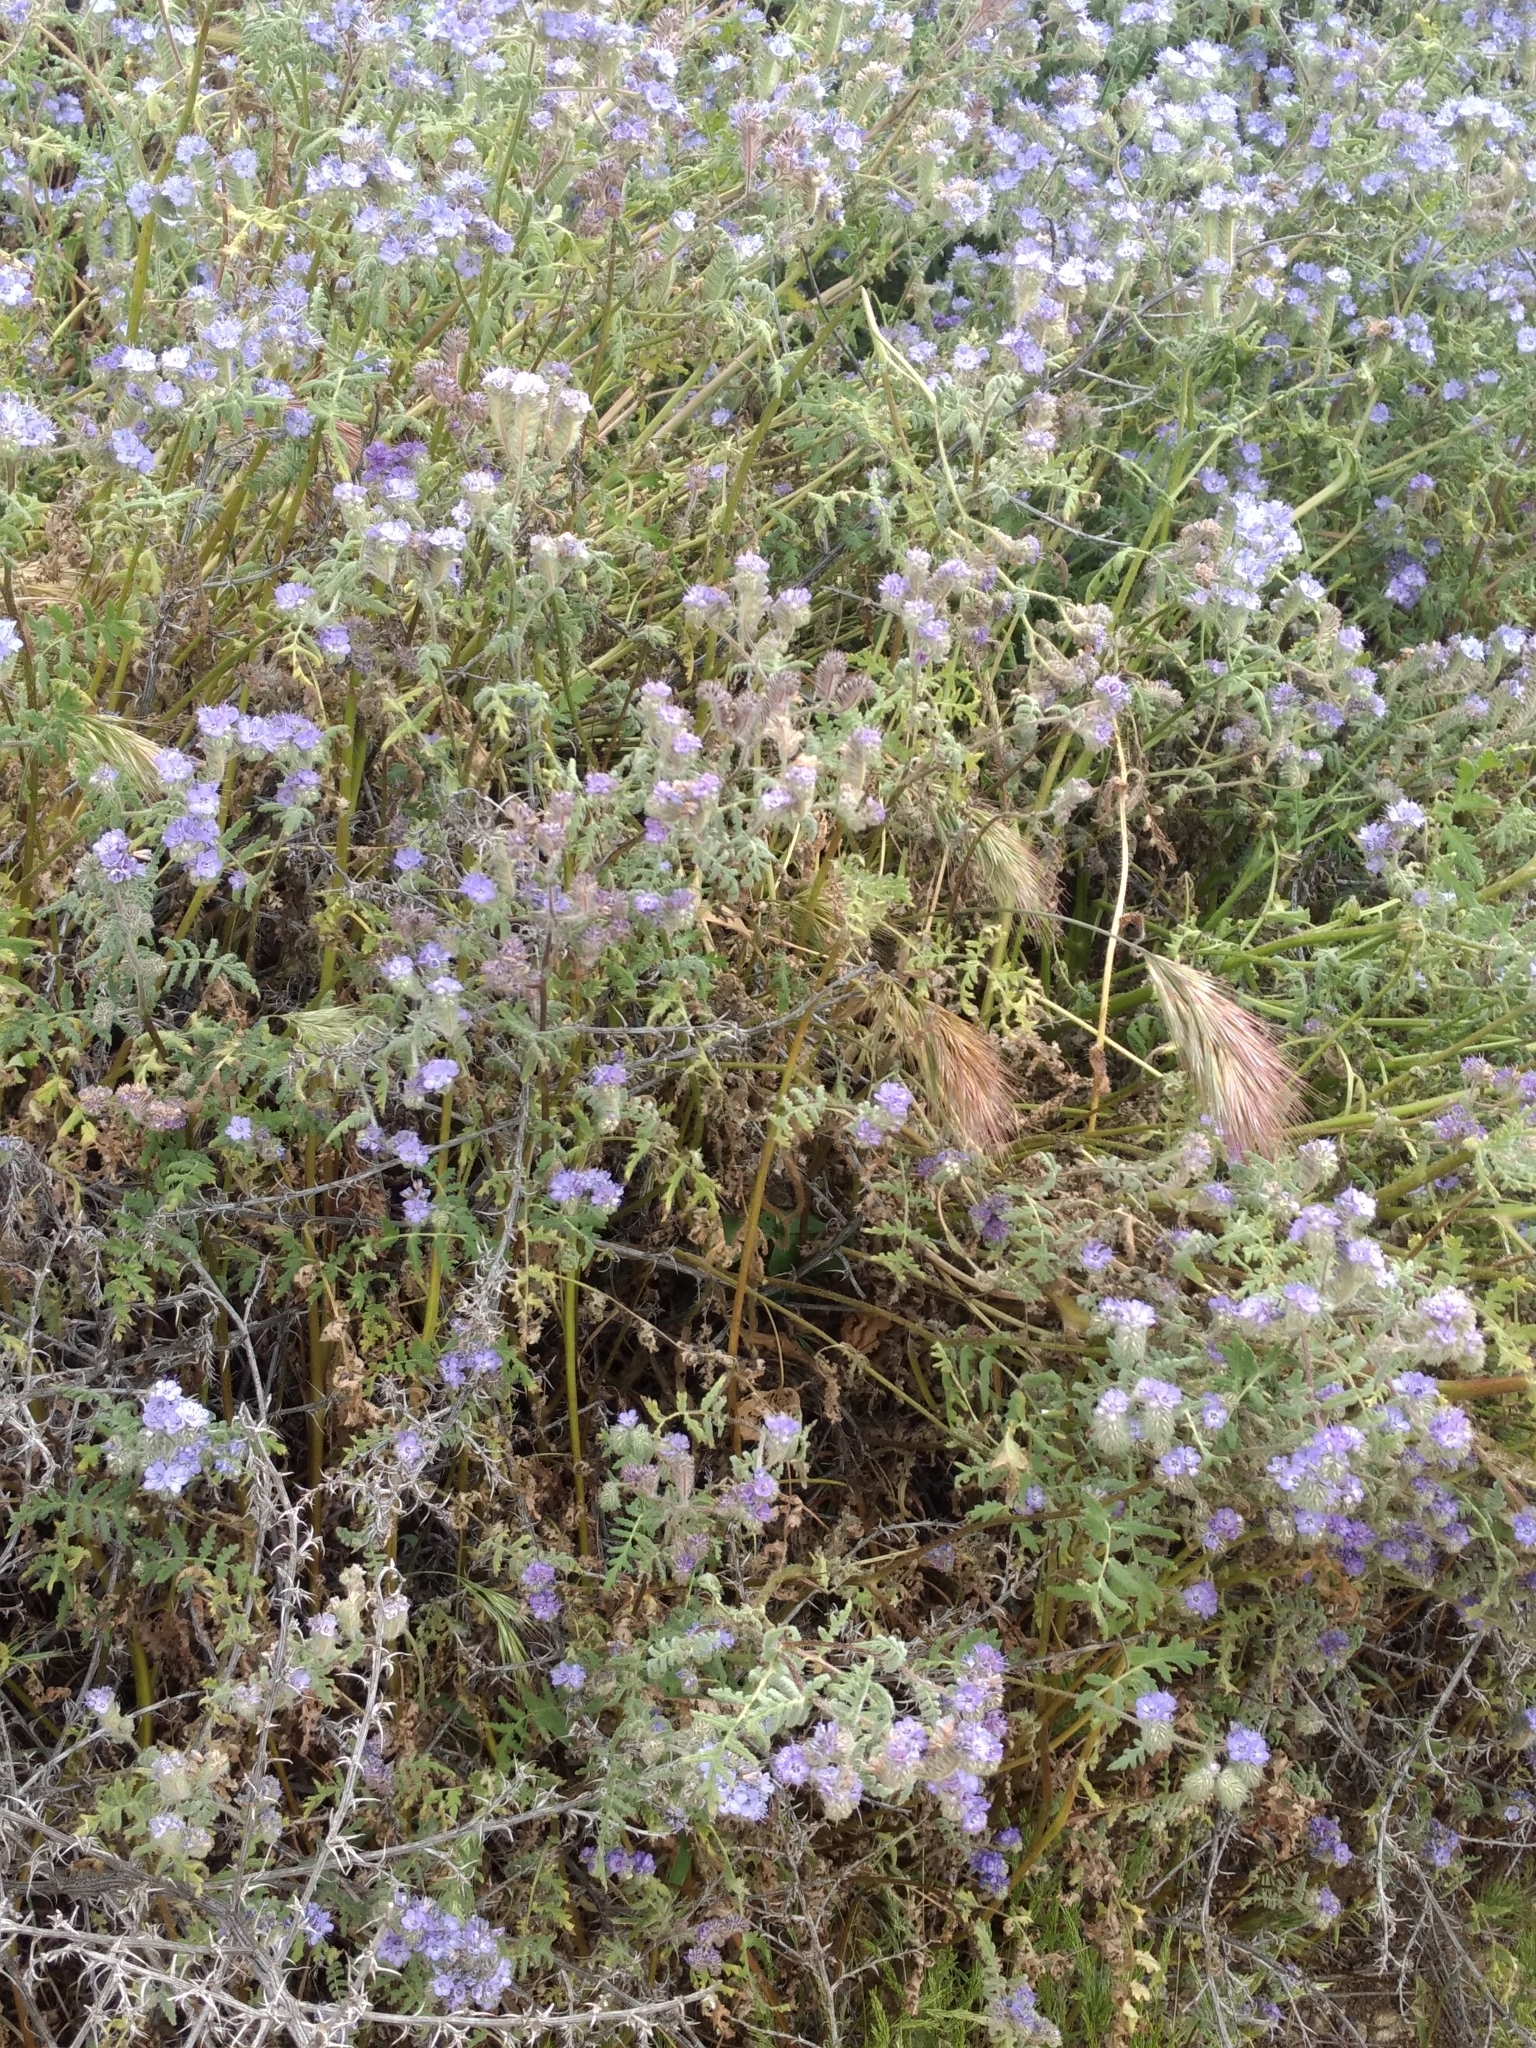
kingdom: Plantae
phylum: Tracheophyta
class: Magnoliopsida
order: Boraginales
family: Hydrophyllaceae
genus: Phacelia
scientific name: Phacelia distans
